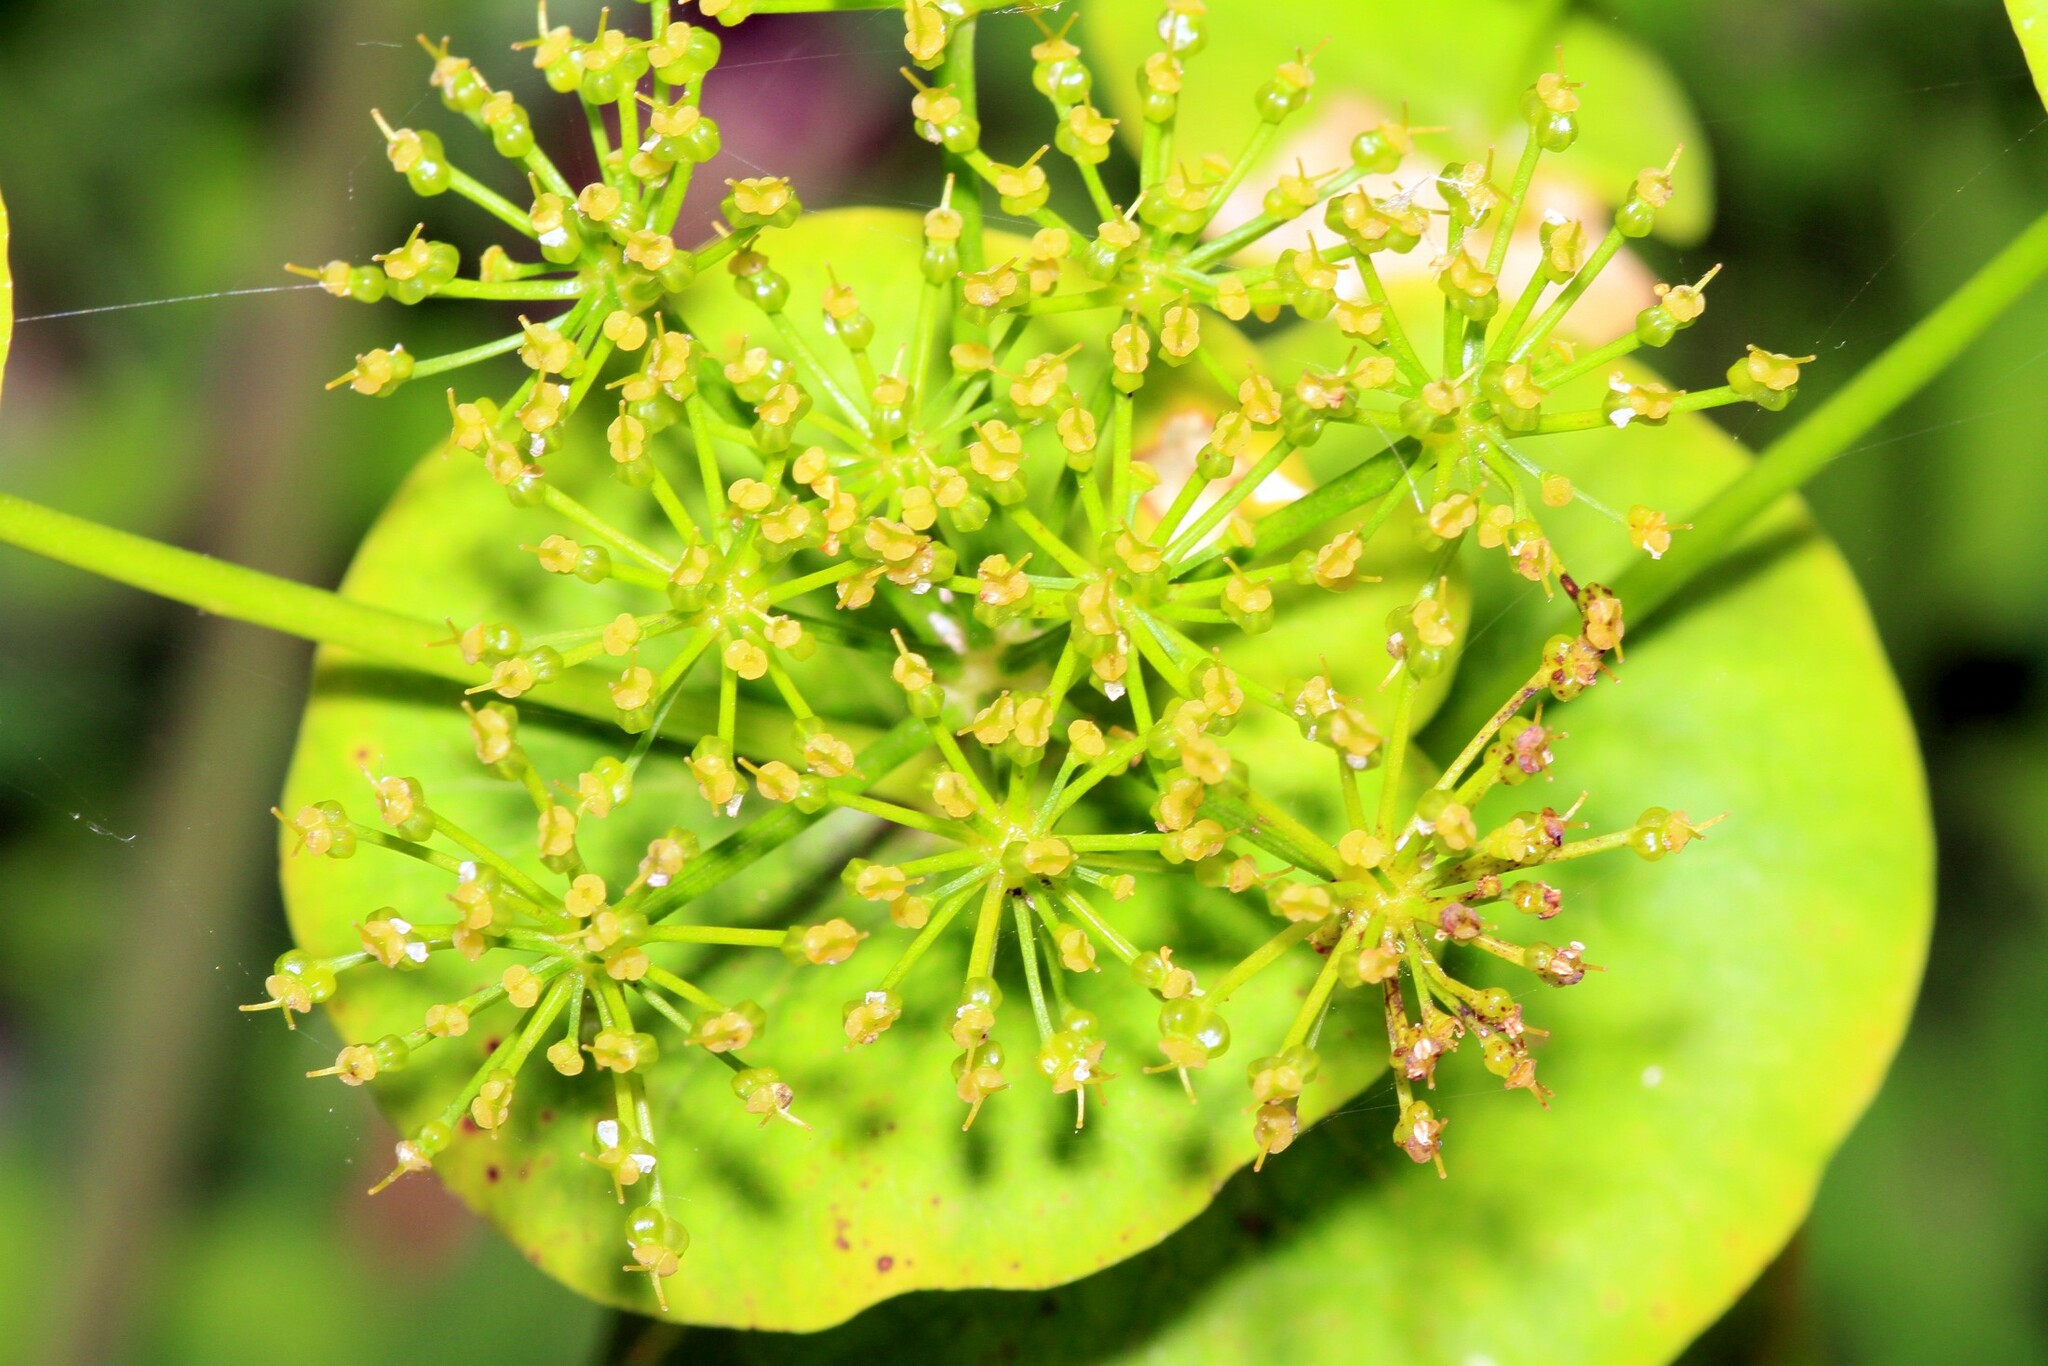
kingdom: Plantae
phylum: Tracheophyta
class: Magnoliopsida
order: Apiales
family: Apiaceae
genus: Smyrnium
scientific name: Smyrnium perfoliatum
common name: Perfoliate alexanders
